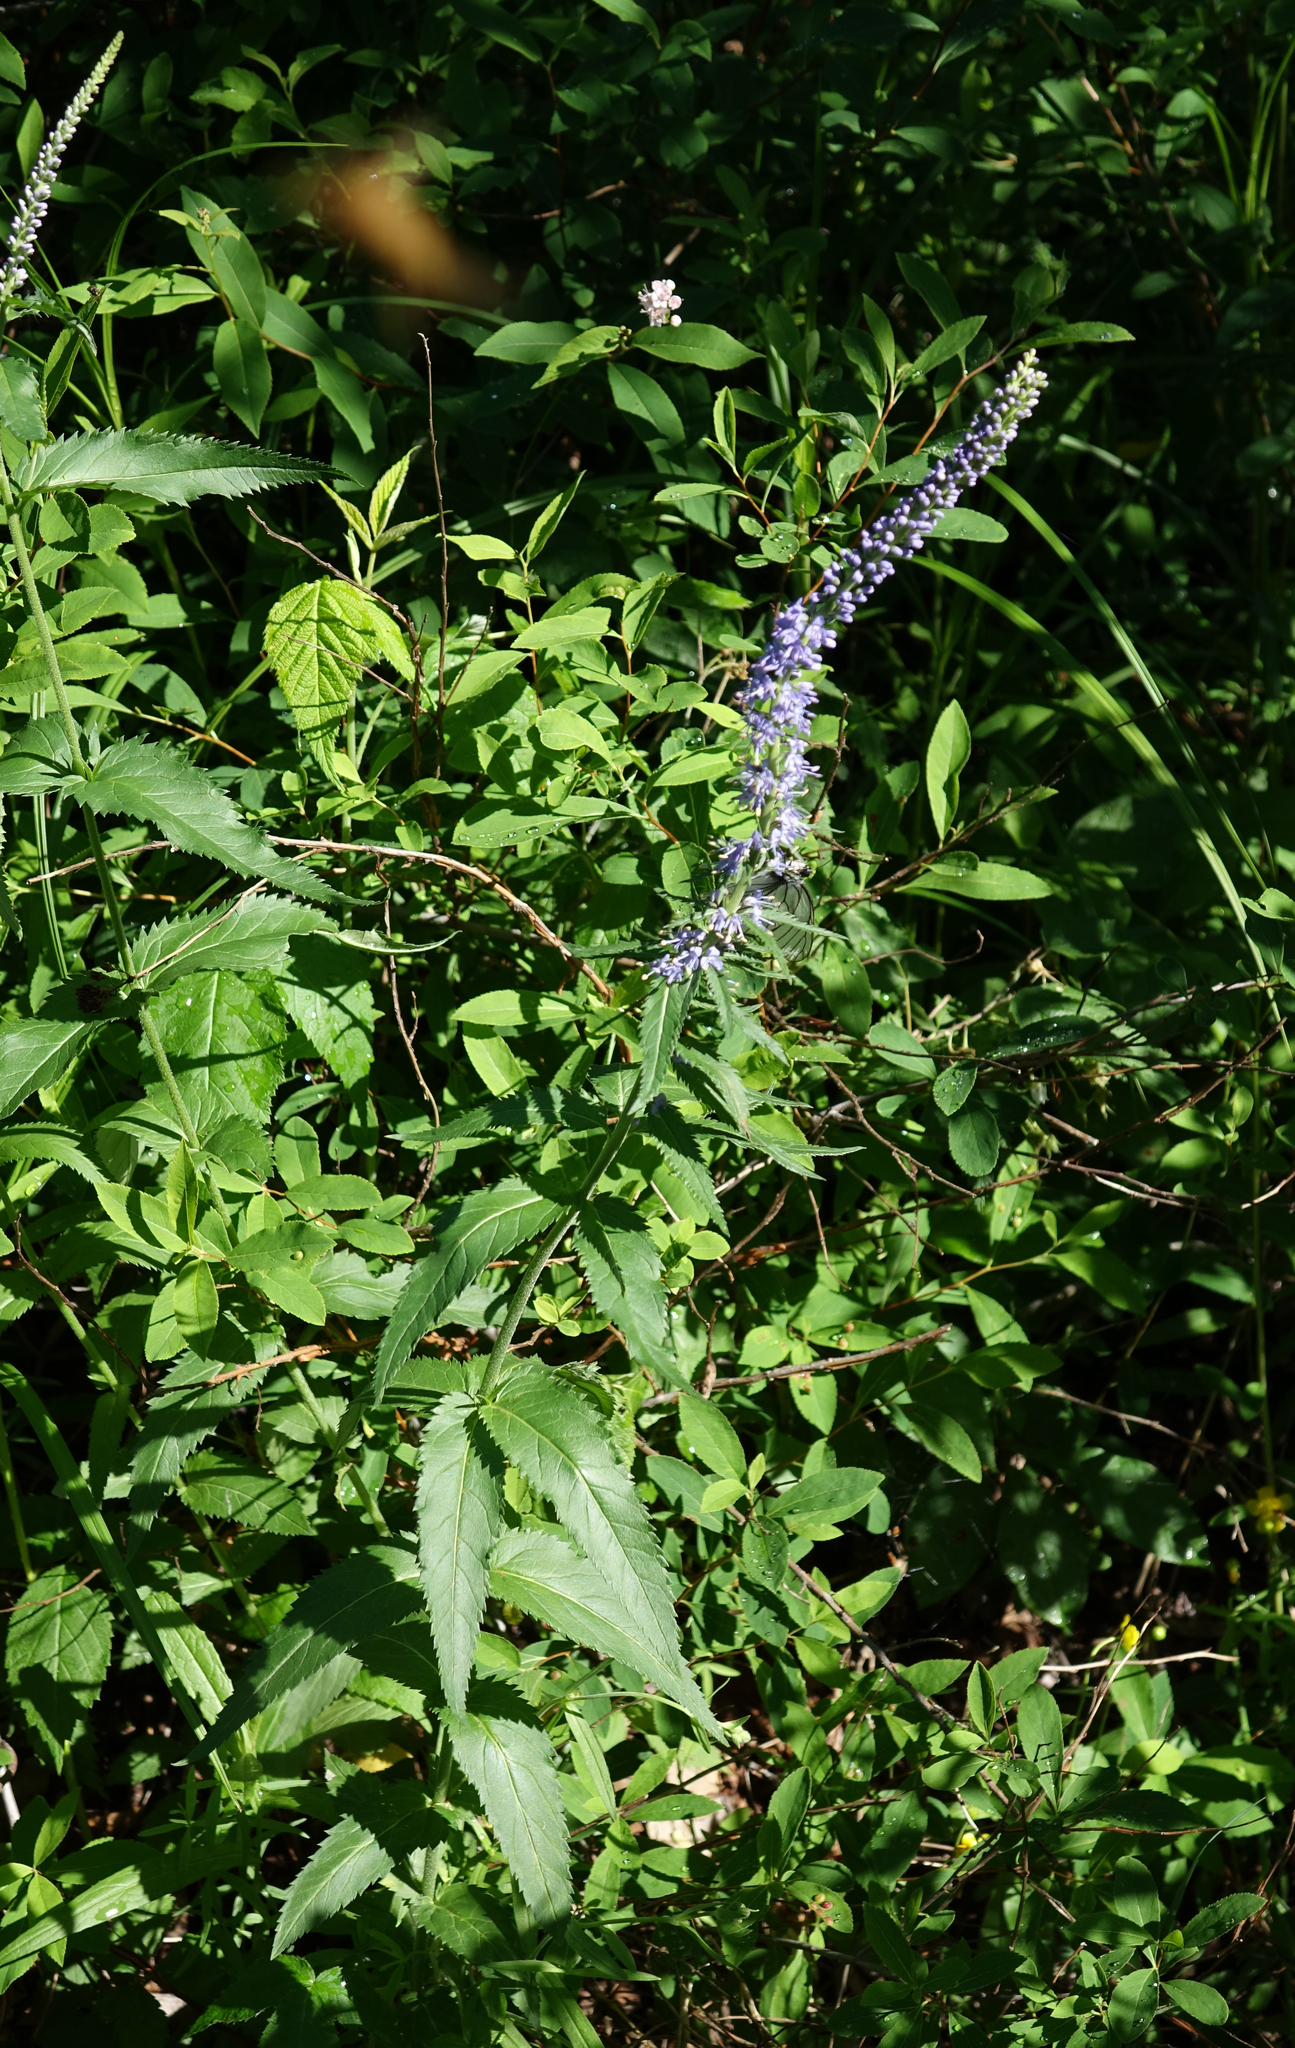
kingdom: Plantae
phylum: Tracheophyta
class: Magnoliopsida
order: Lamiales
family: Plantaginaceae
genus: Veronica
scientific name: Veronica longifolia
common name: Garden speedwell
